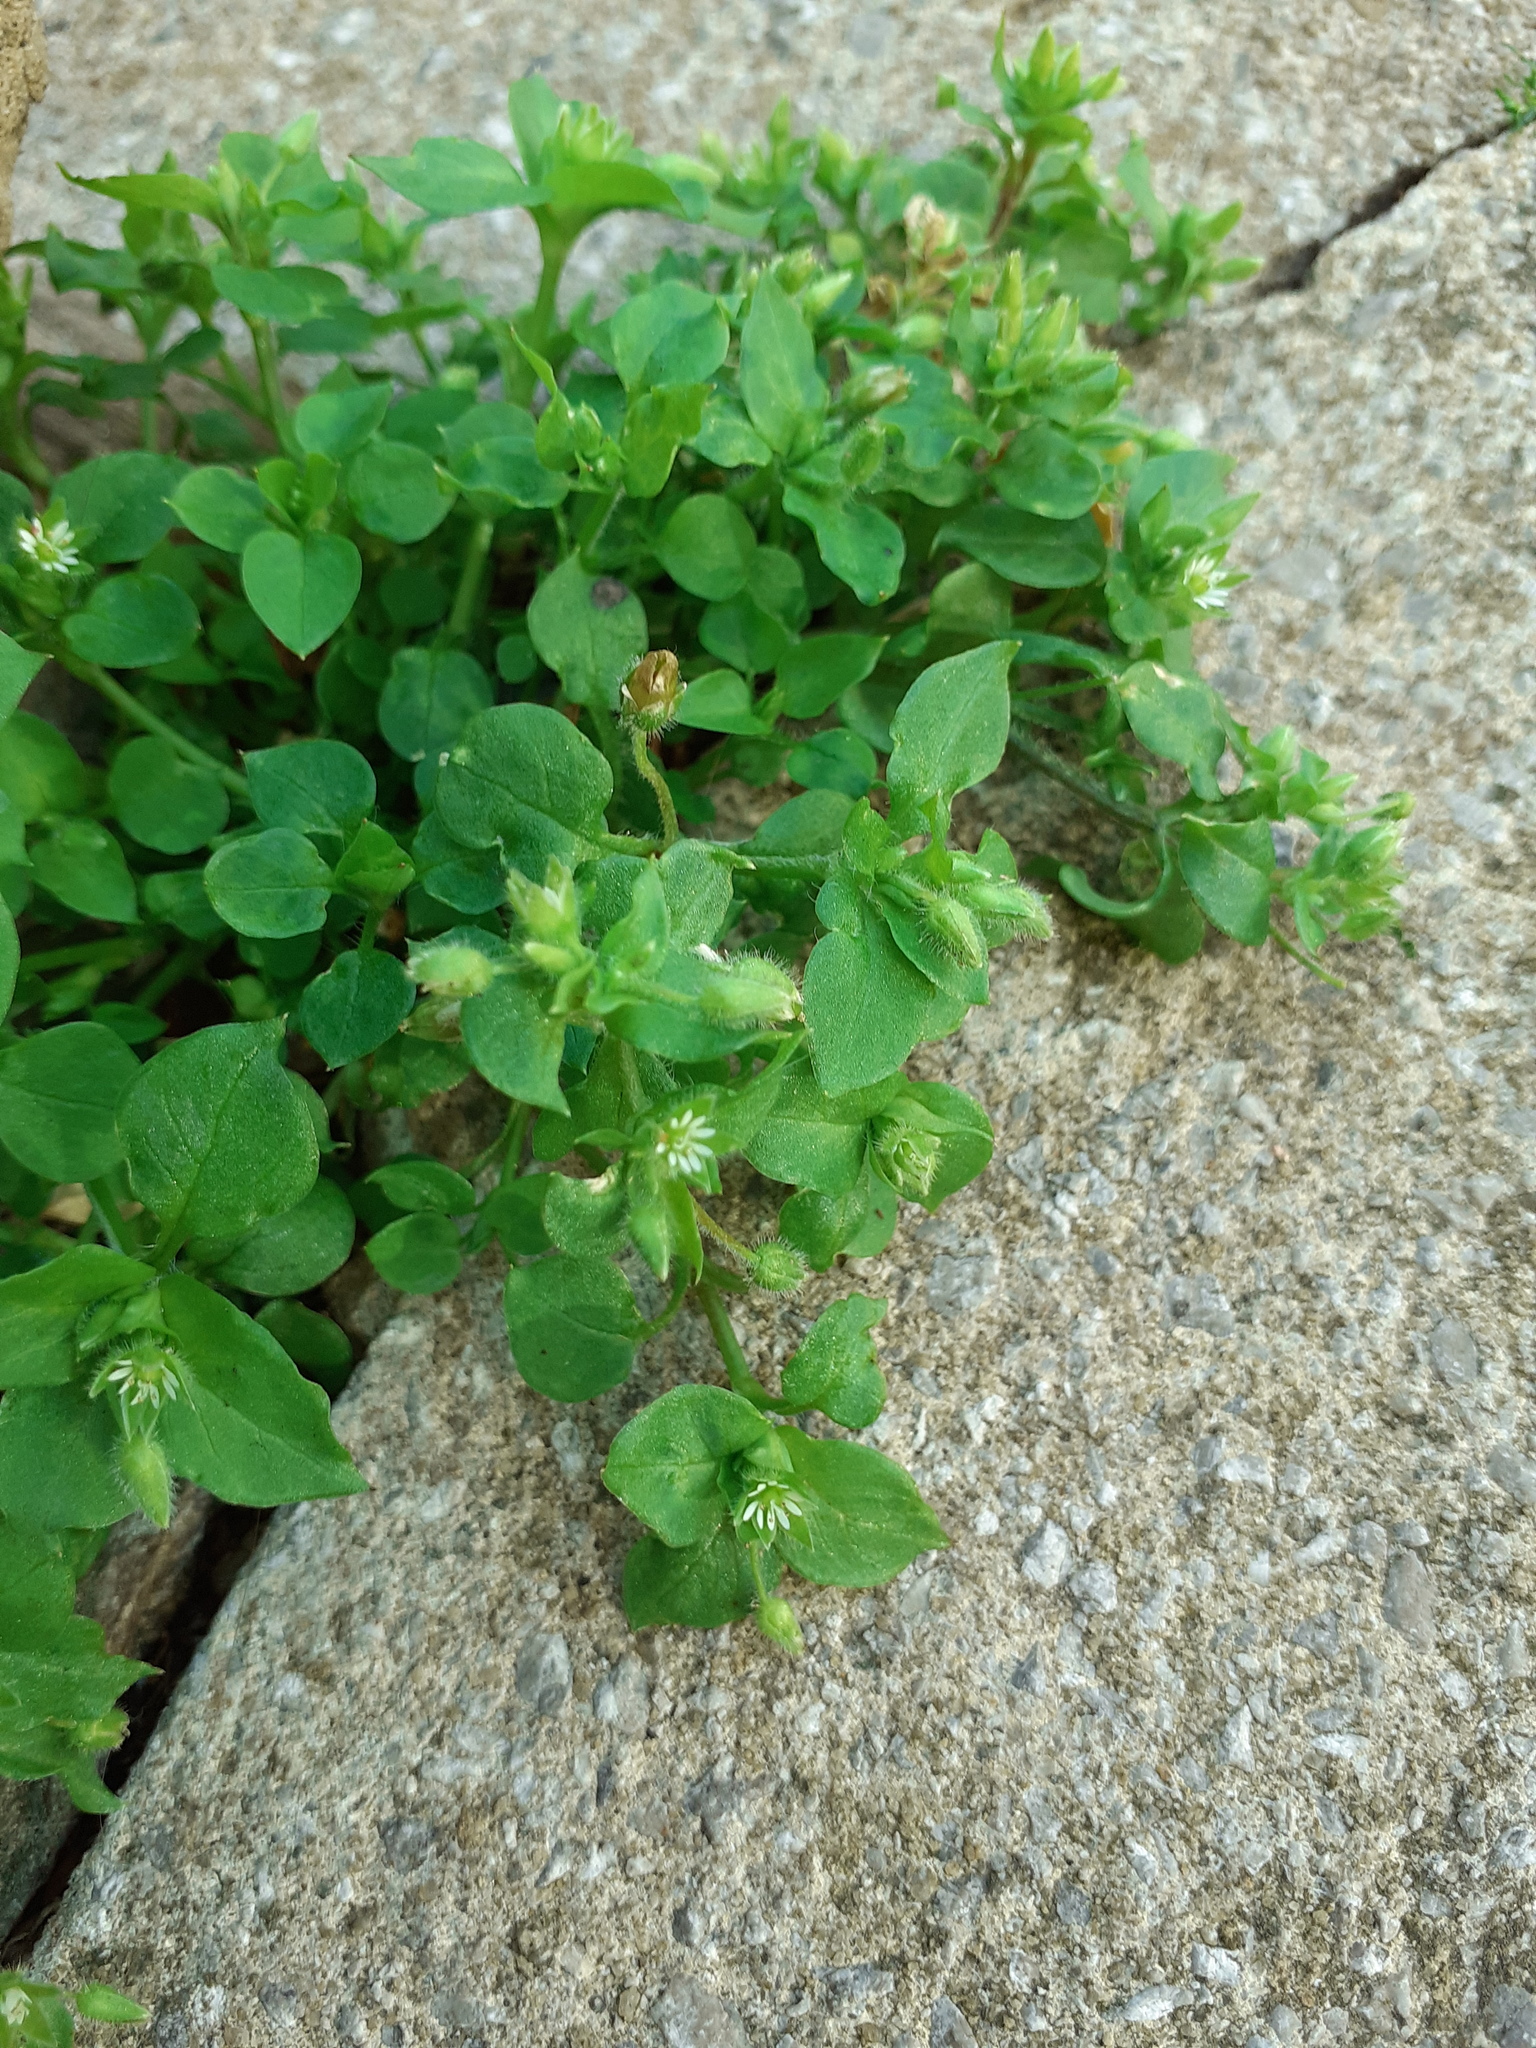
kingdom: Plantae
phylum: Tracheophyta
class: Magnoliopsida
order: Caryophyllales
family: Caryophyllaceae
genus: Stellaria
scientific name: Stellaria media
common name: Common chickweed
